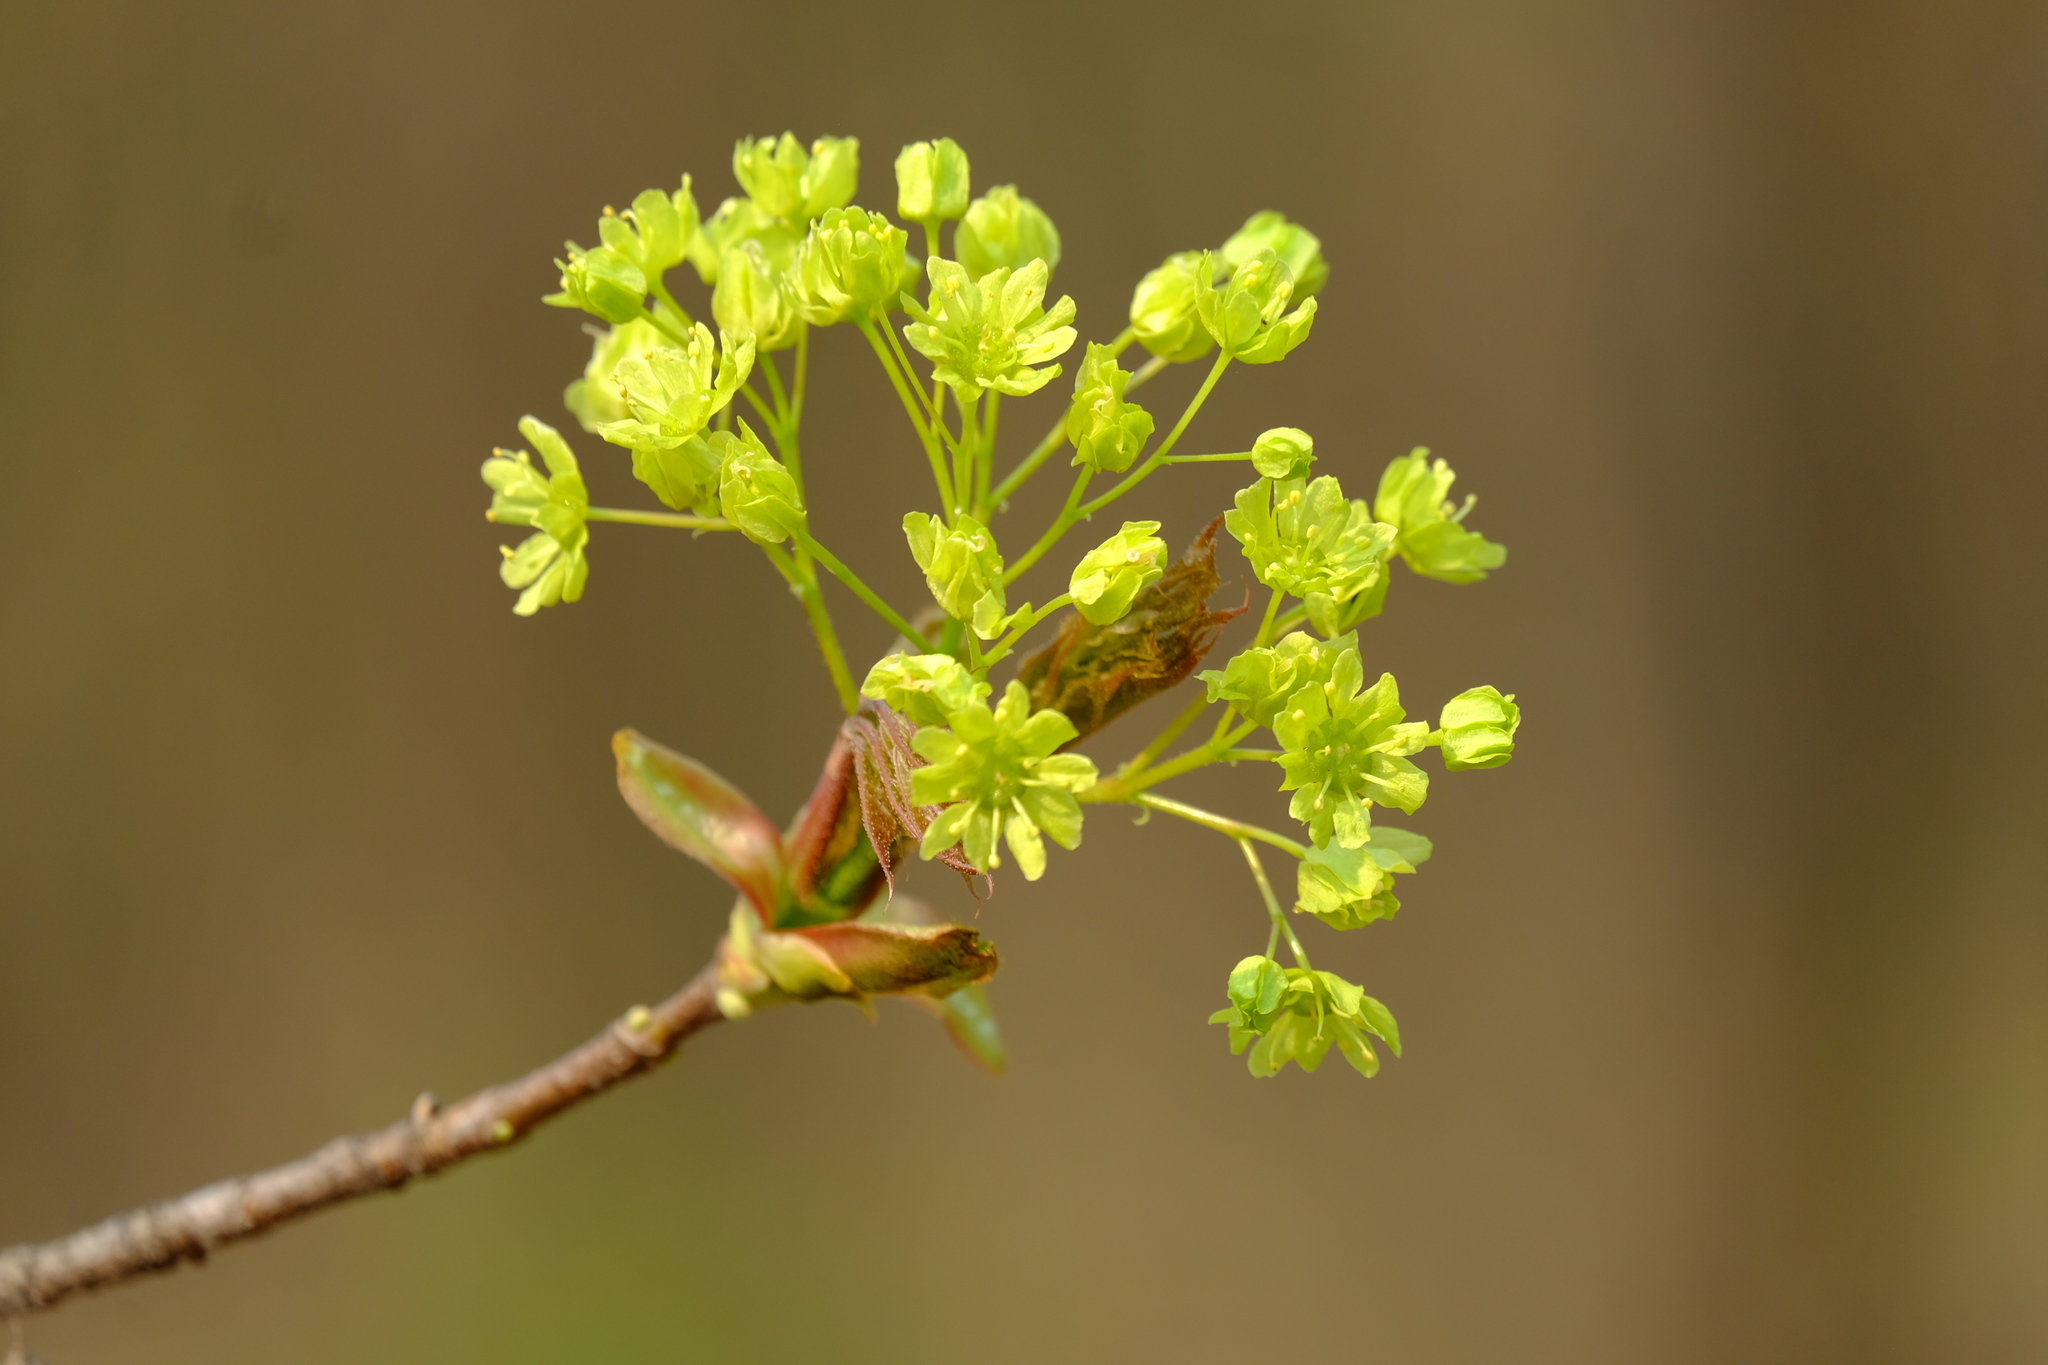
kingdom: Plantae
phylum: Tracheophyta
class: Magnoliopsida
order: Sapindales
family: Sapindaceae
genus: Acer
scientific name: Acer platanoides
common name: Norway maple
